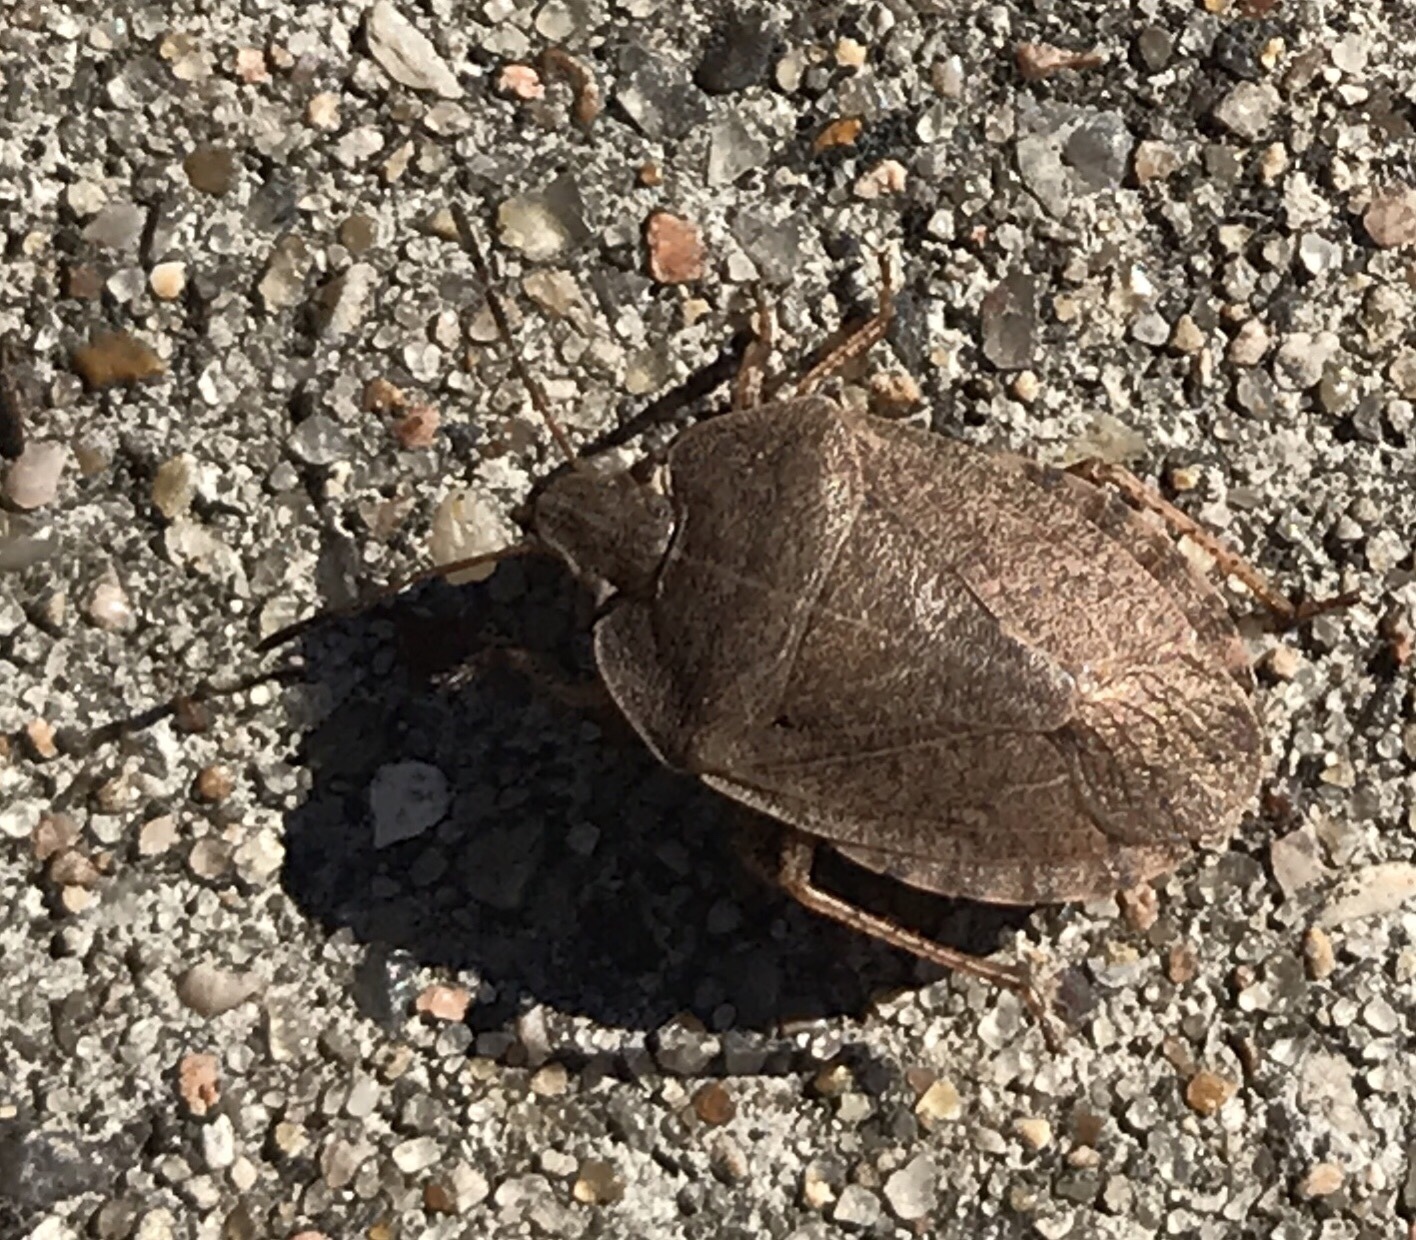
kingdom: Animalia
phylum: Arthropoda
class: Insecta
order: Hemiptera
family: Pentatomidae
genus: Menecles
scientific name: Menecles insertus
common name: Elf shoe stink bug
